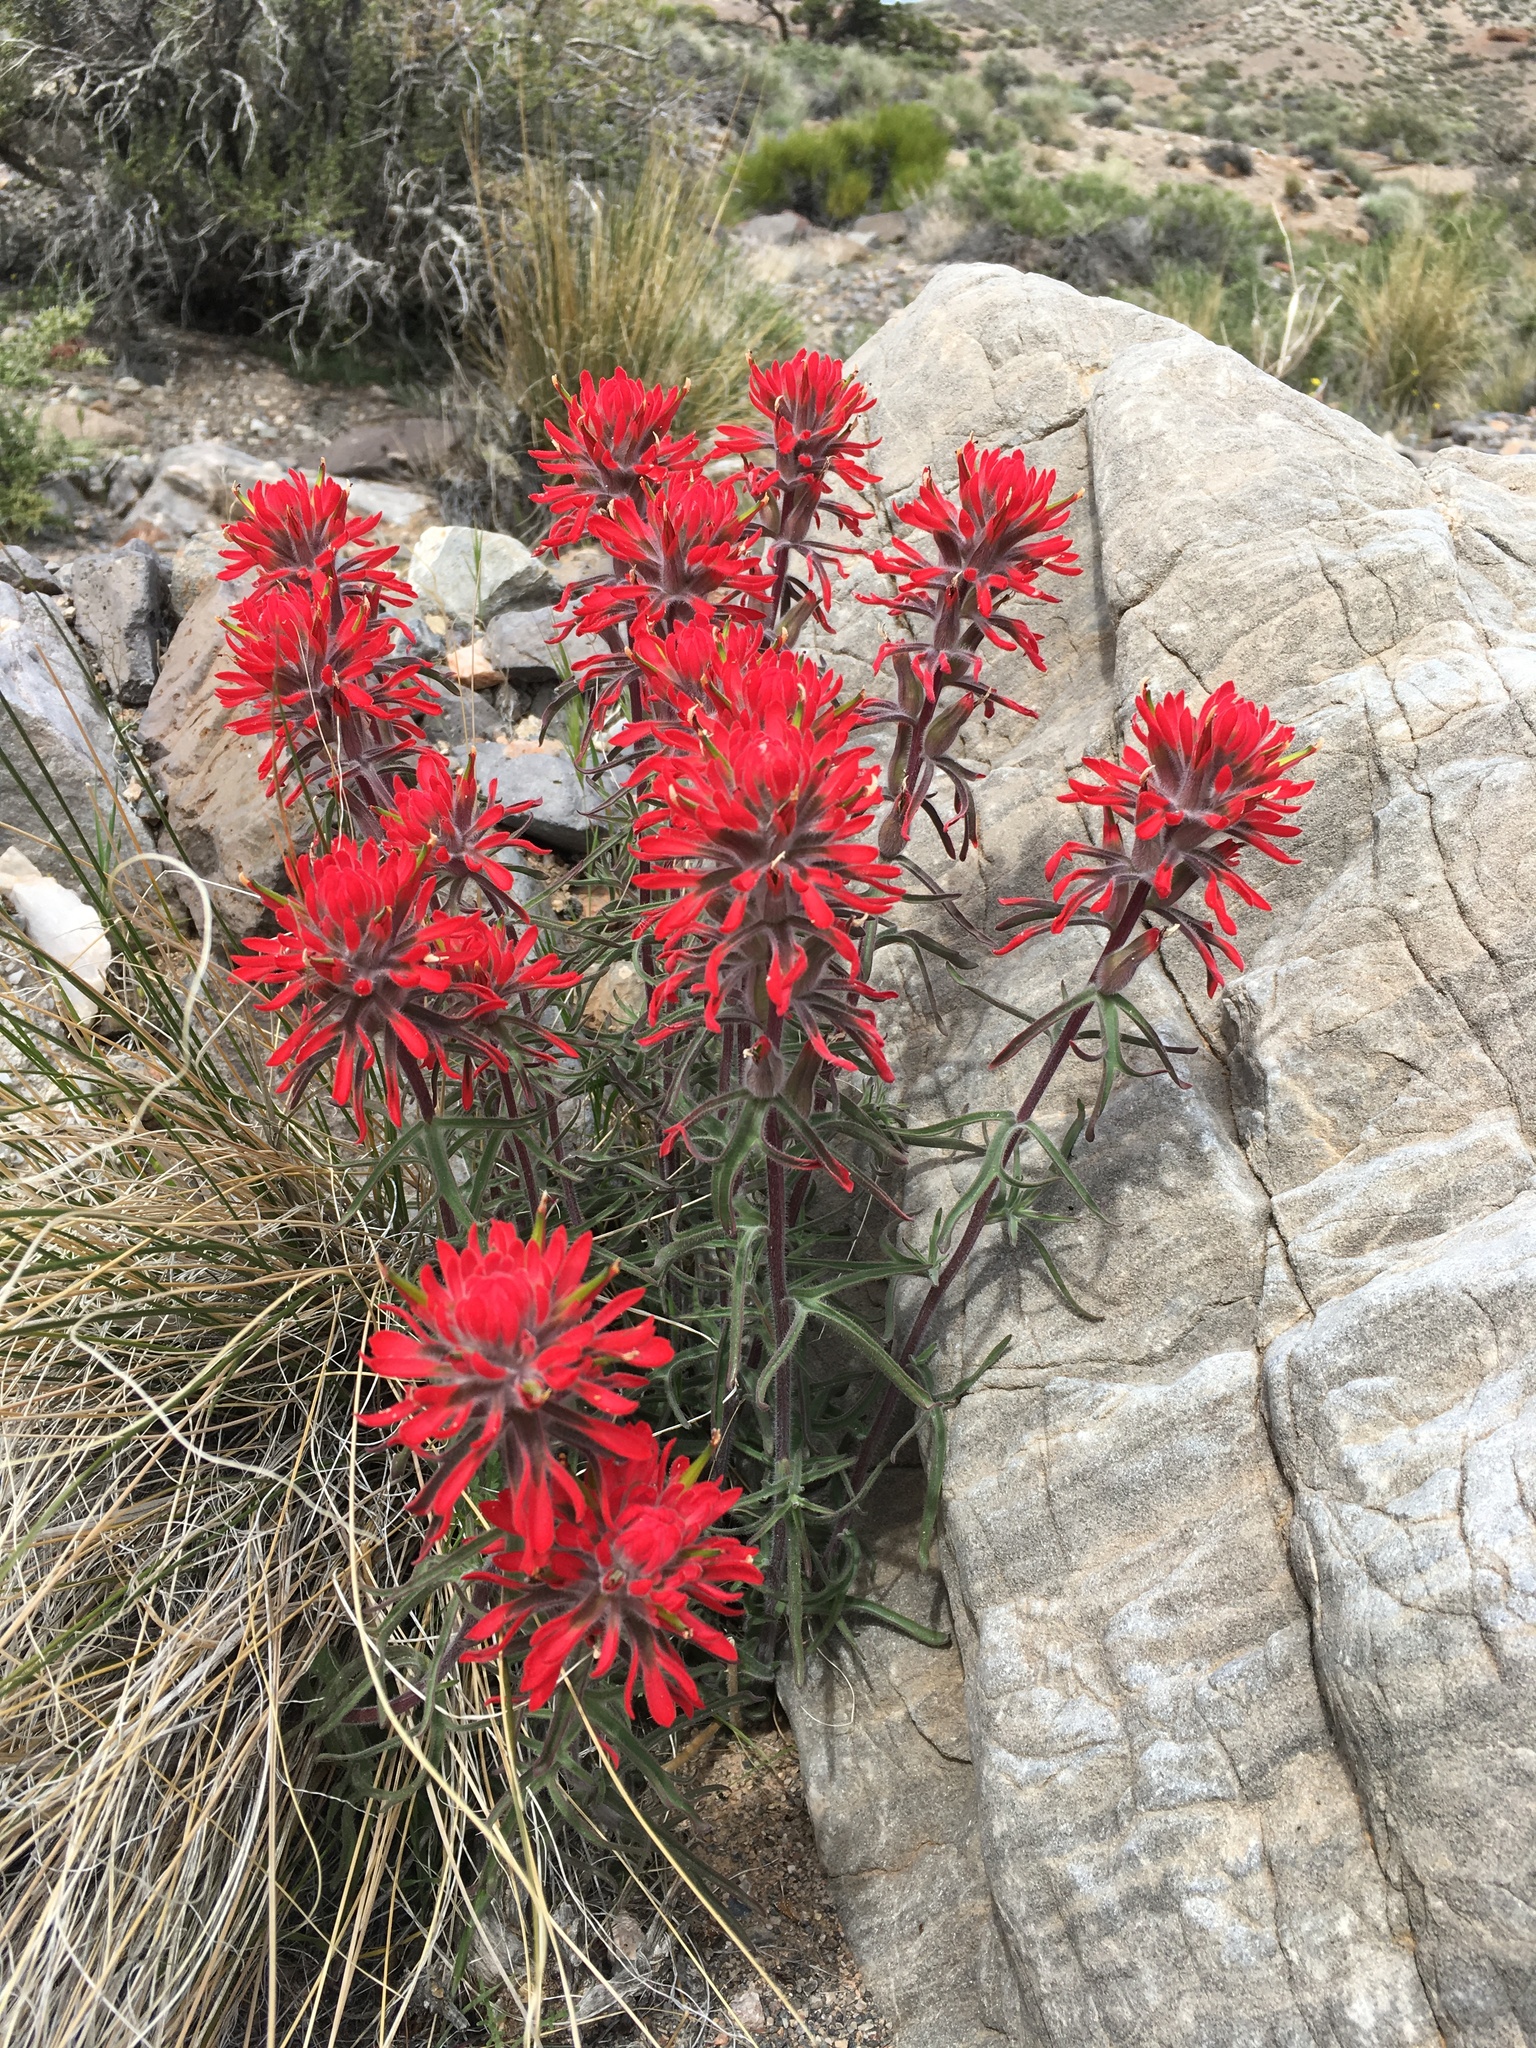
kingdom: Plantae
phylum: Tracheophyta
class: Magnoliopsida
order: Lamiales
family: Orobanchaceae
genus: Castilleja
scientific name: Castilleja chromosa
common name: Desert paintbrush
